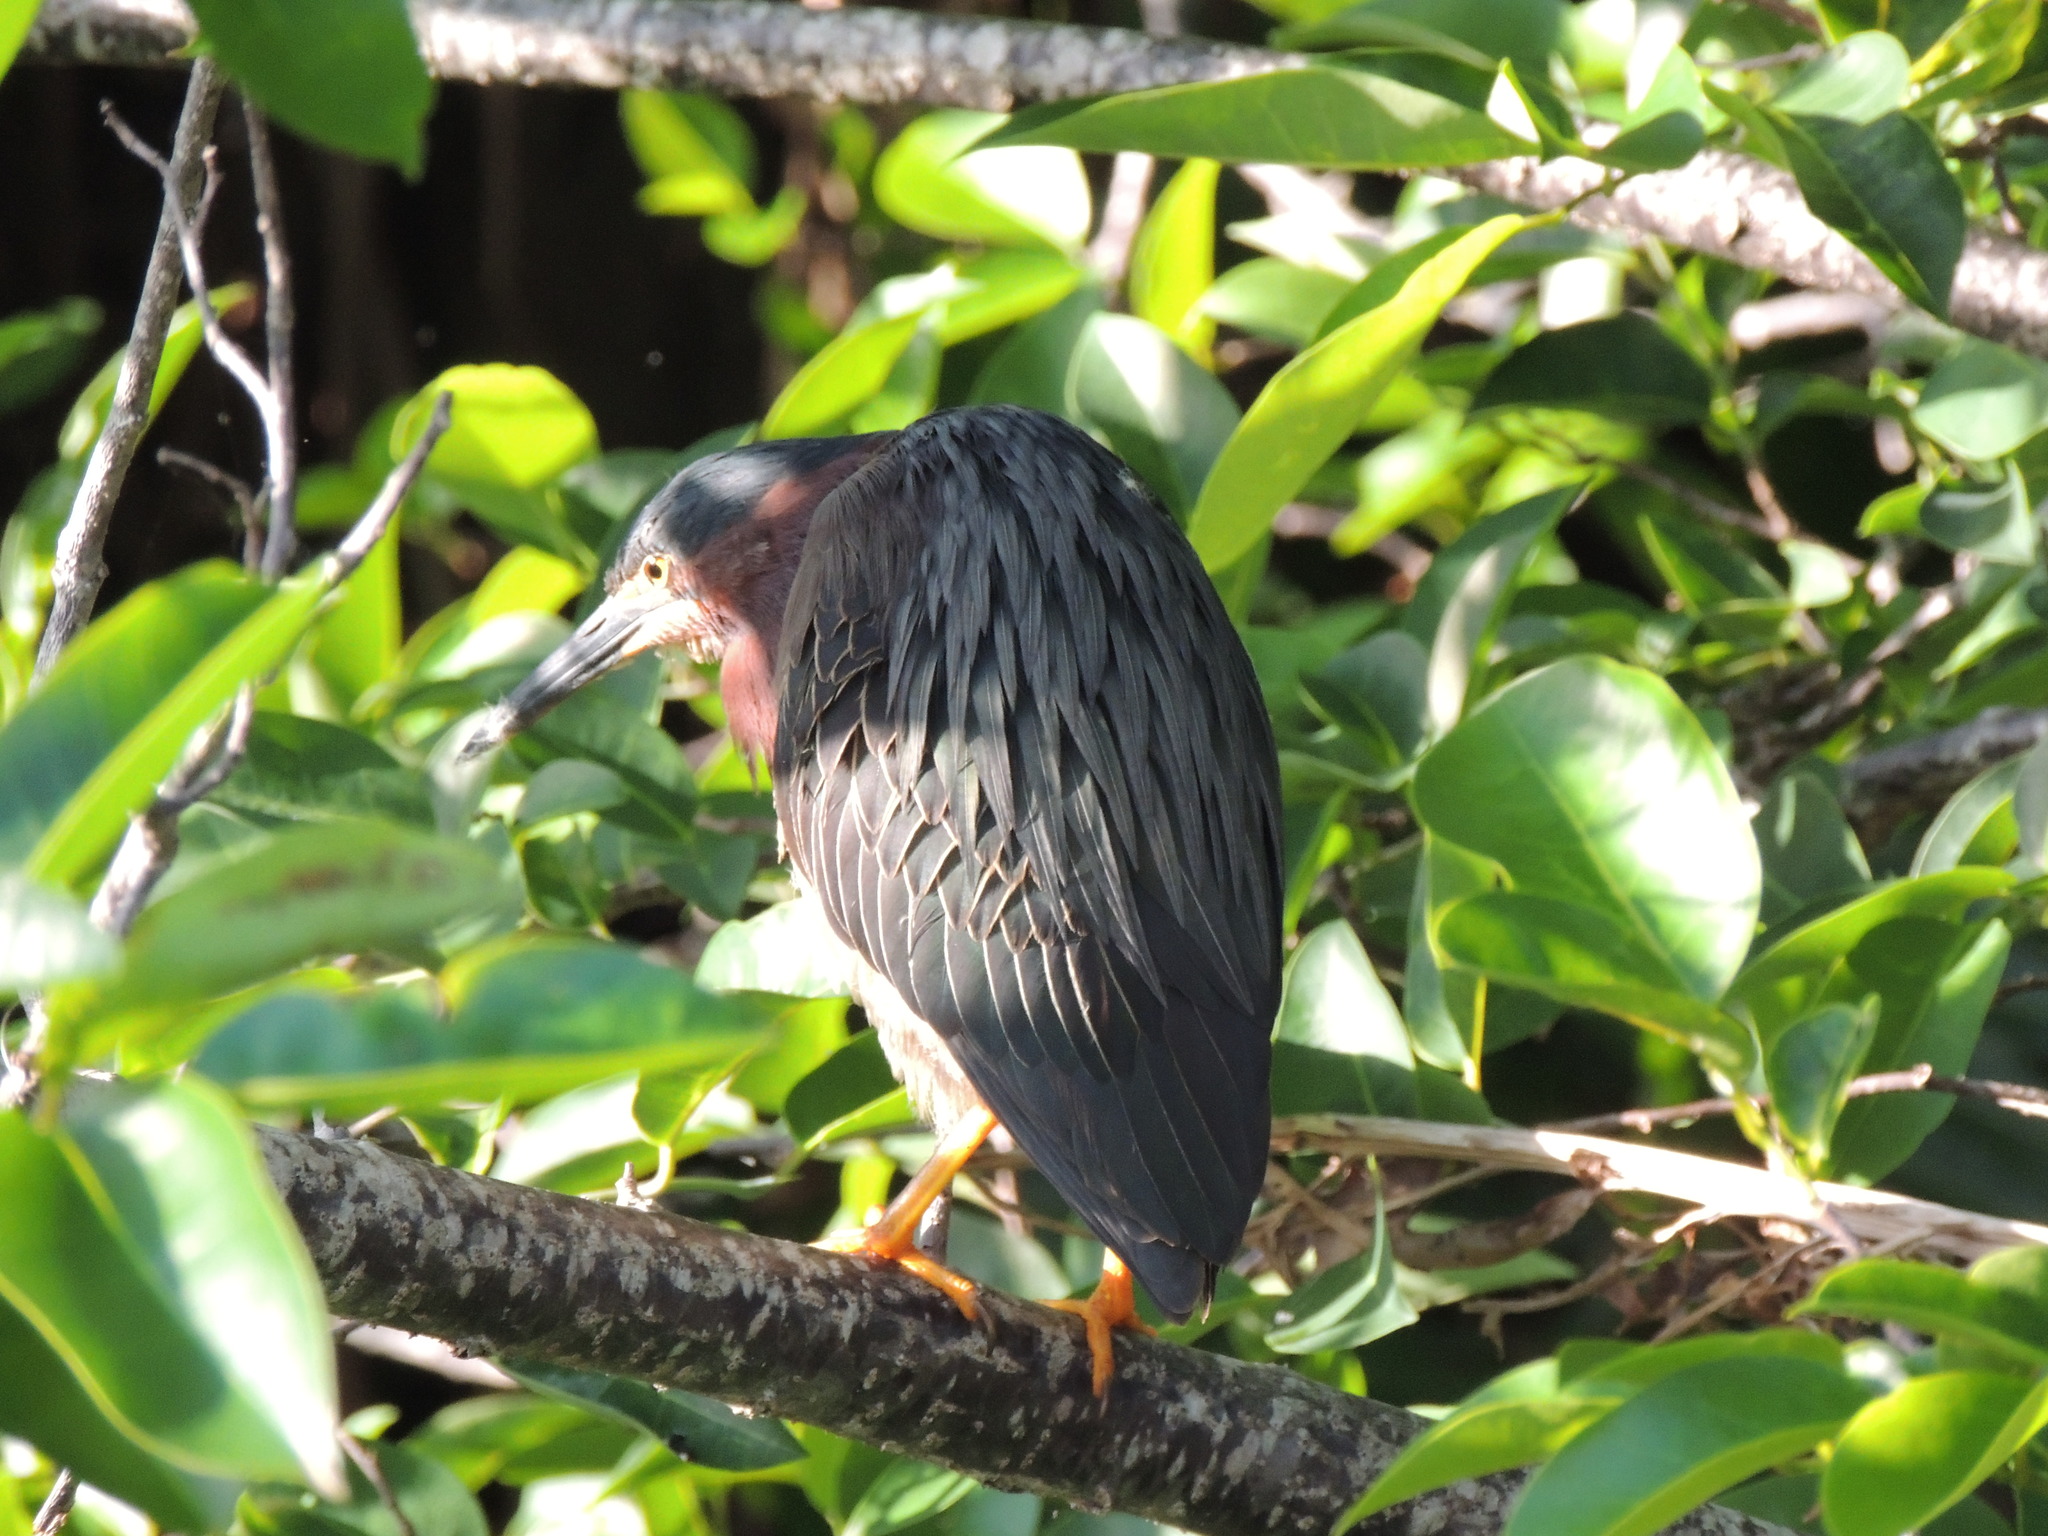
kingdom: Animalia
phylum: Chordata
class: Aves
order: Pelecaniformes
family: Ardeidae
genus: Butorides
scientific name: Butorides virescens
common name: Green heron
